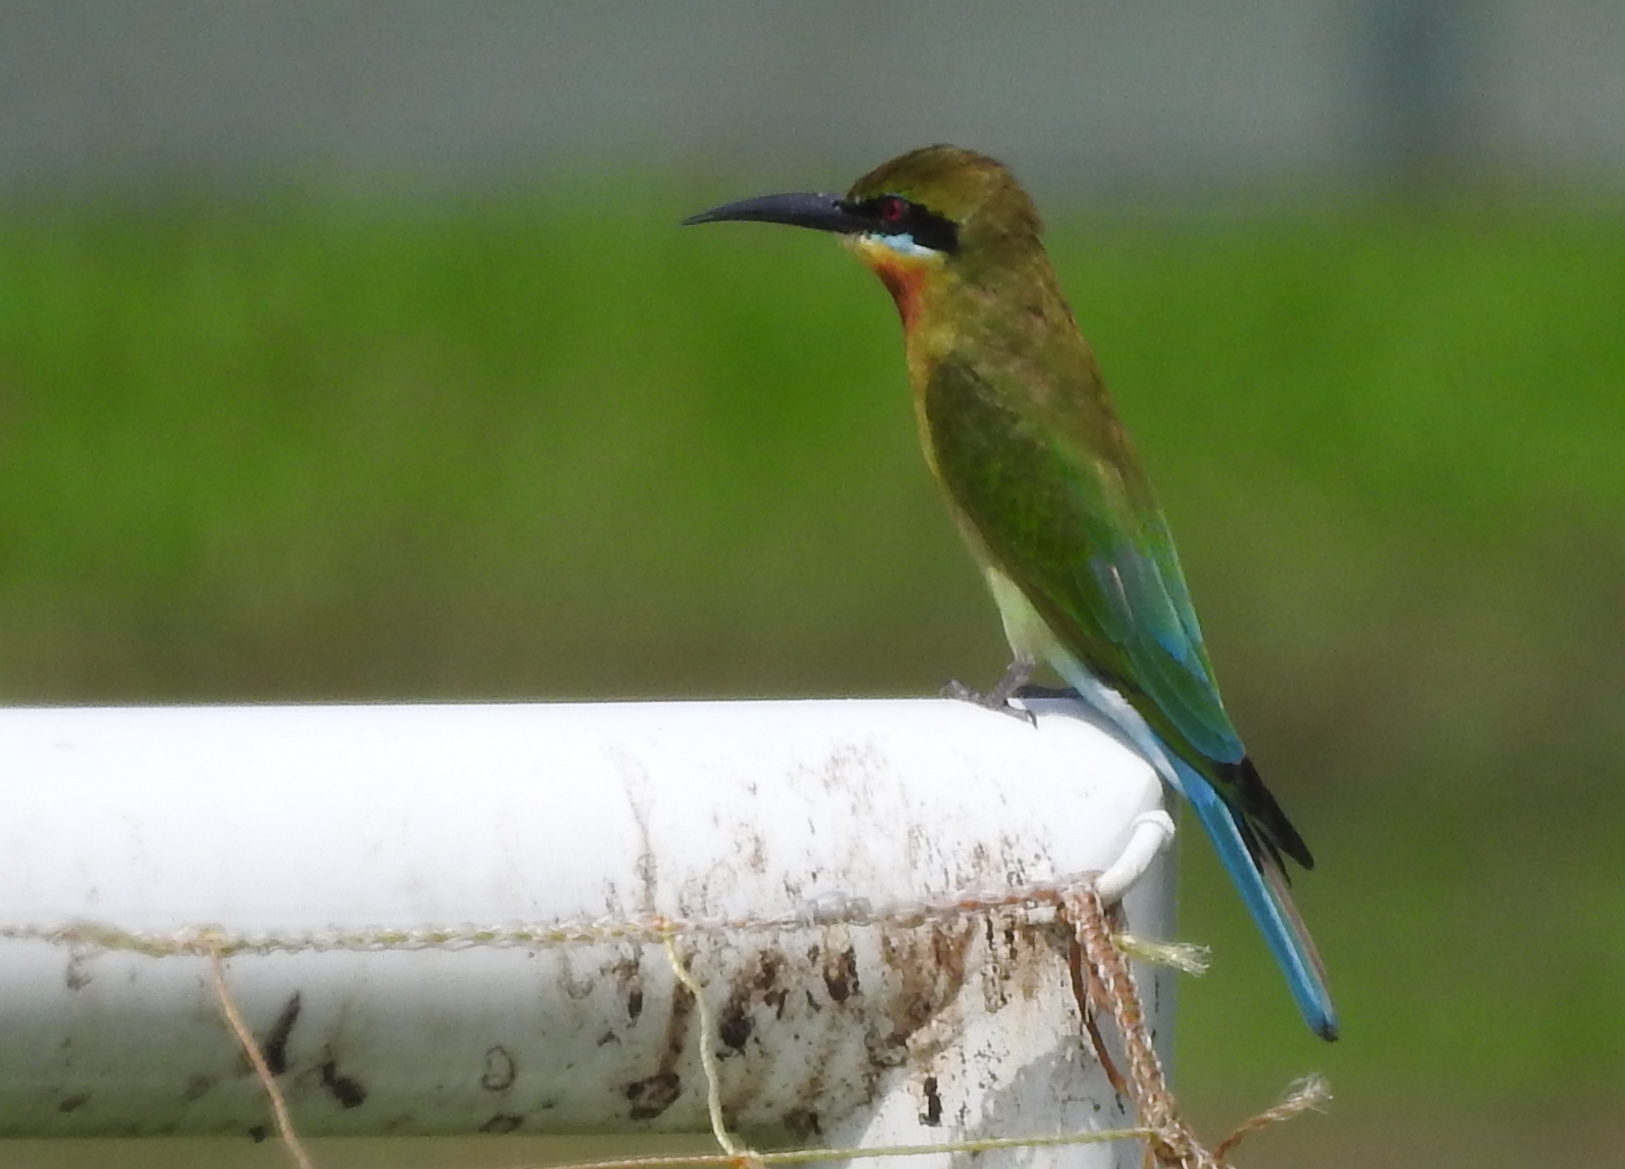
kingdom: Animalia
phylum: Chordata
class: Aves
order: Coraciiformes
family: Meropidae
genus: Merops
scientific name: Merops philippinus
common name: Blue-tailed bee-eater
